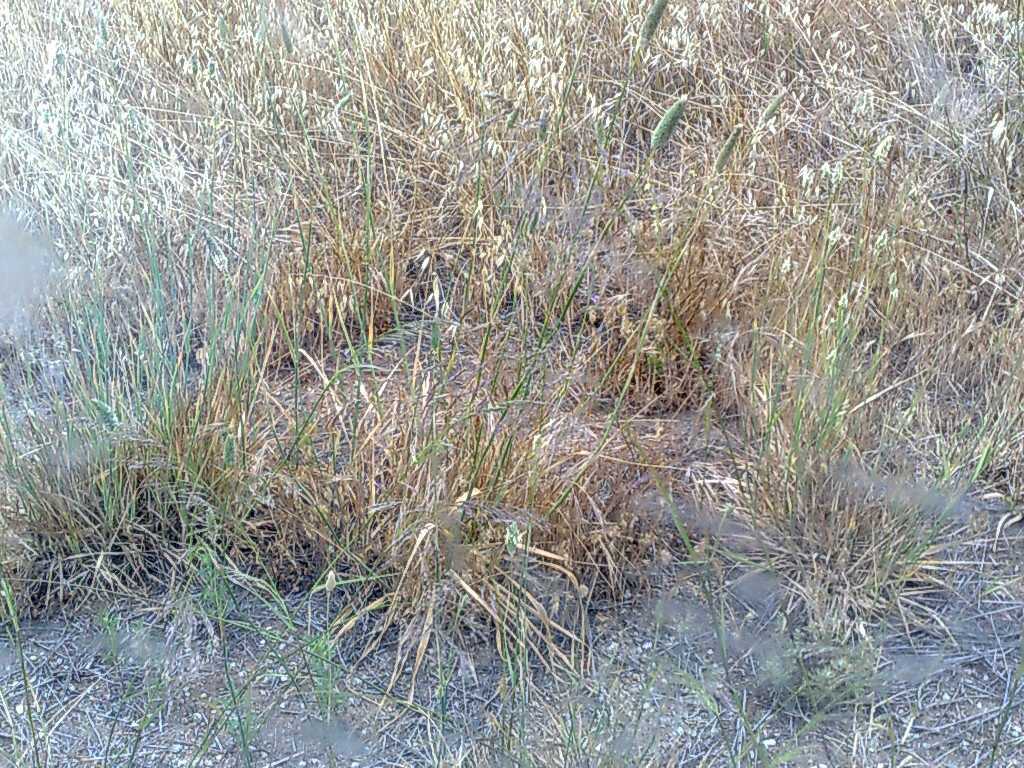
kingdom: Plantae
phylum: Tracheophyta
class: Liliopsida
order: Poales
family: Poaceae
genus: Avena
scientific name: Avena
